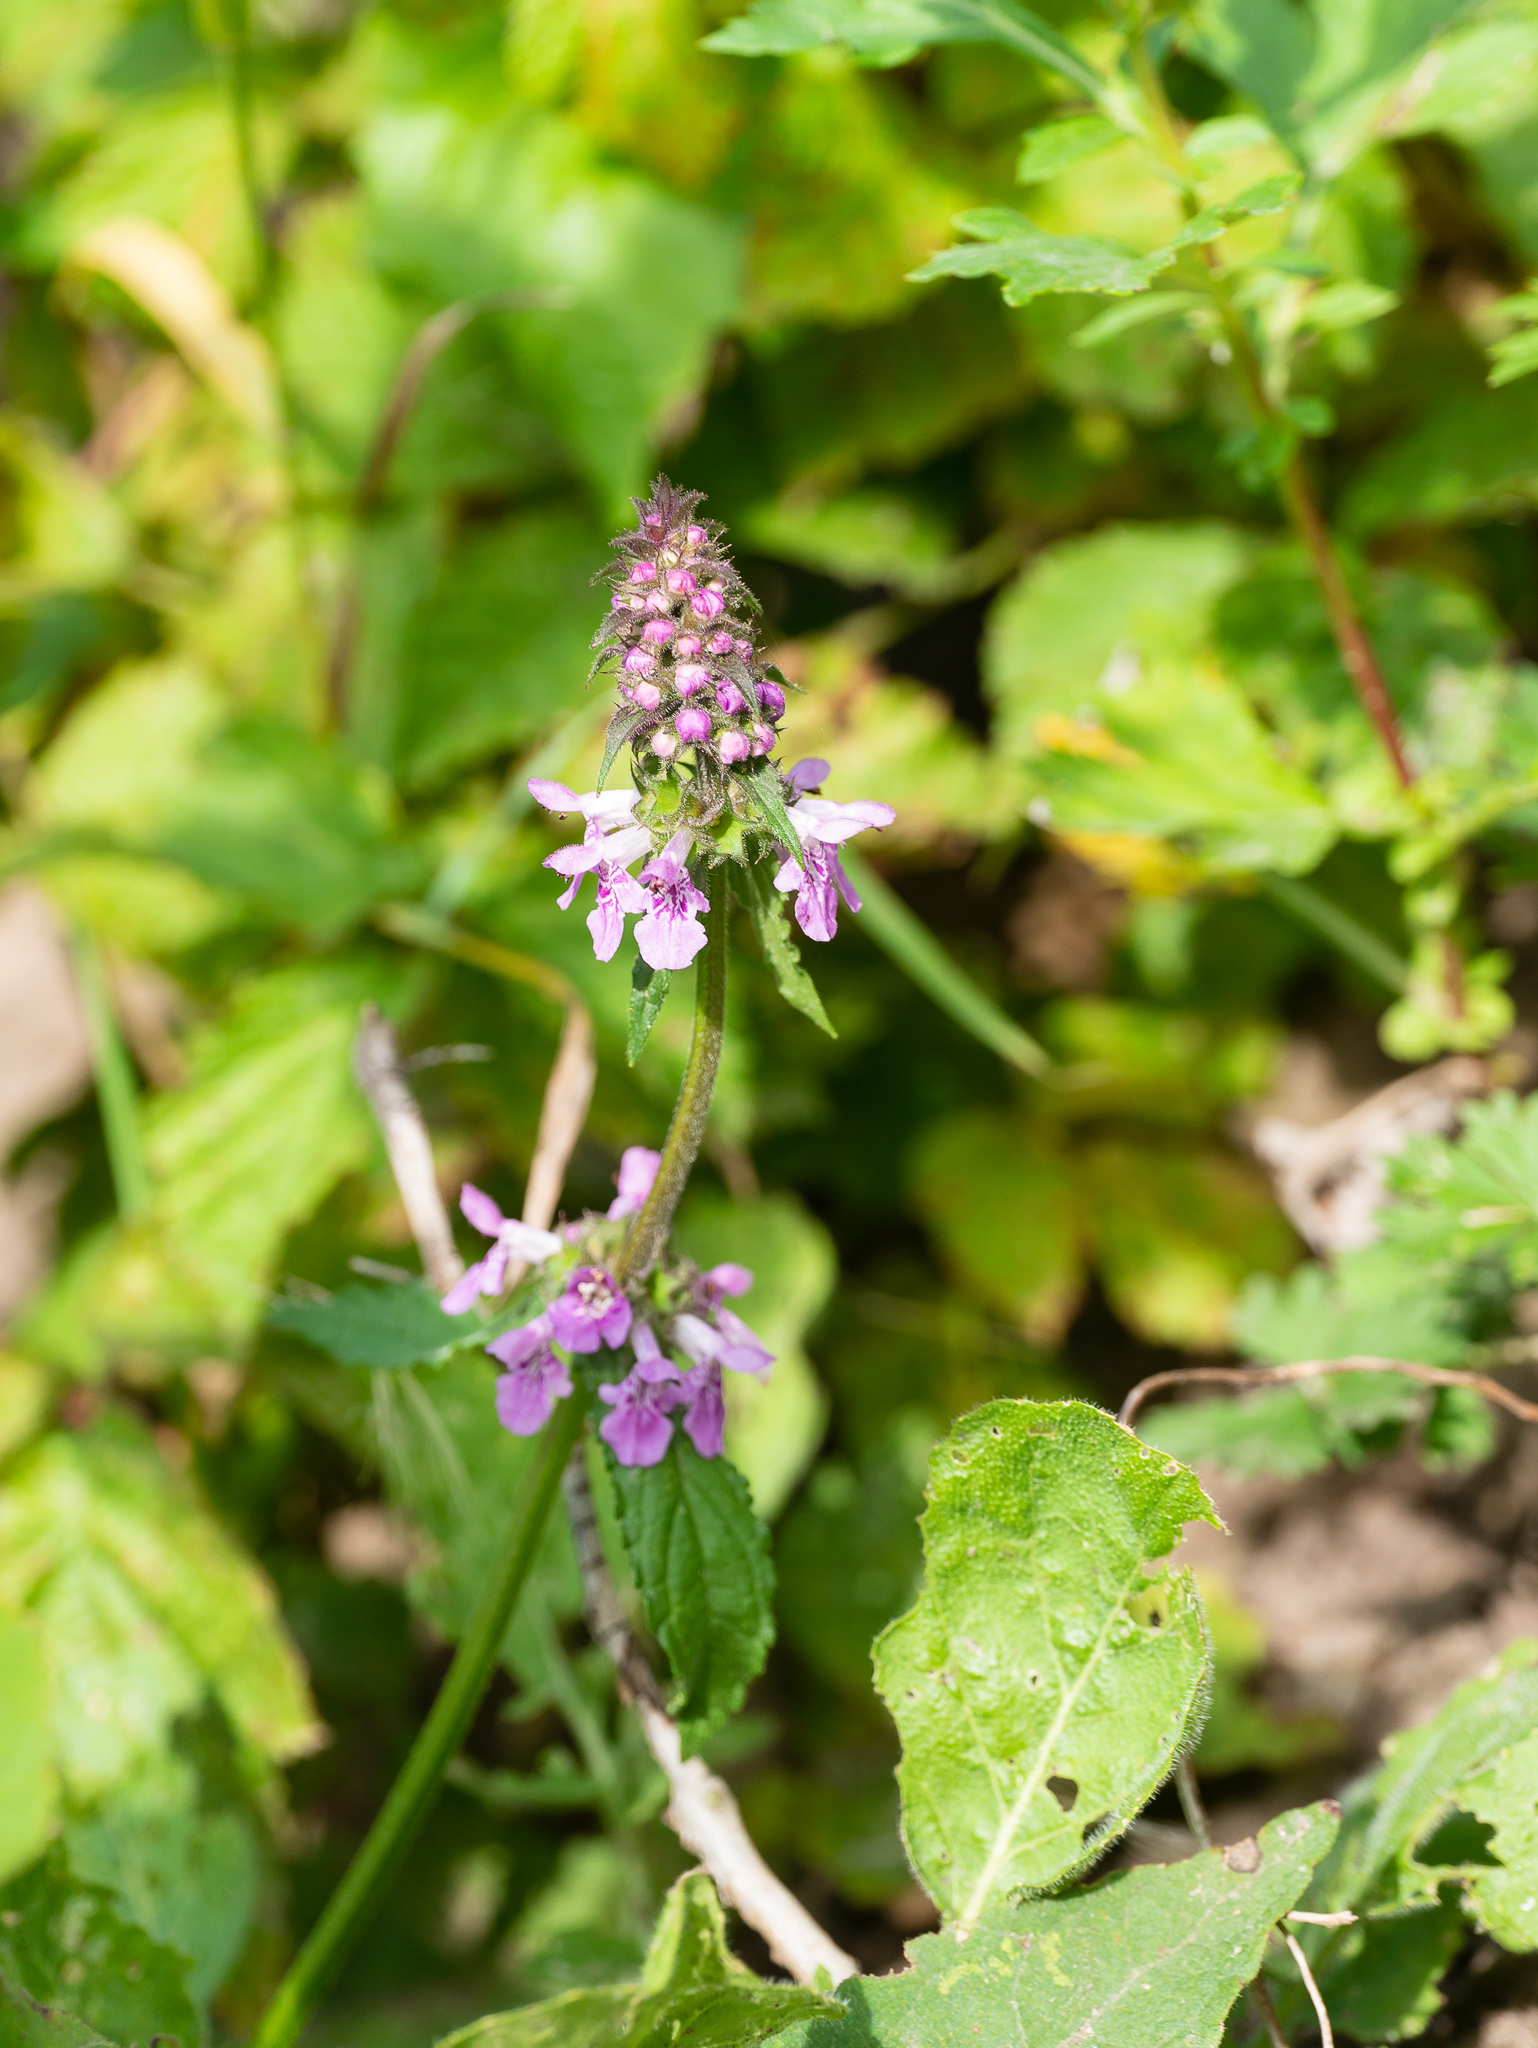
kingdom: Plantae
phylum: Tracheophyta
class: Magnoliopsida
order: Lamiales
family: Lamiaceae
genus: Stachys
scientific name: Stachys palustris
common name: Marsh woundwort
